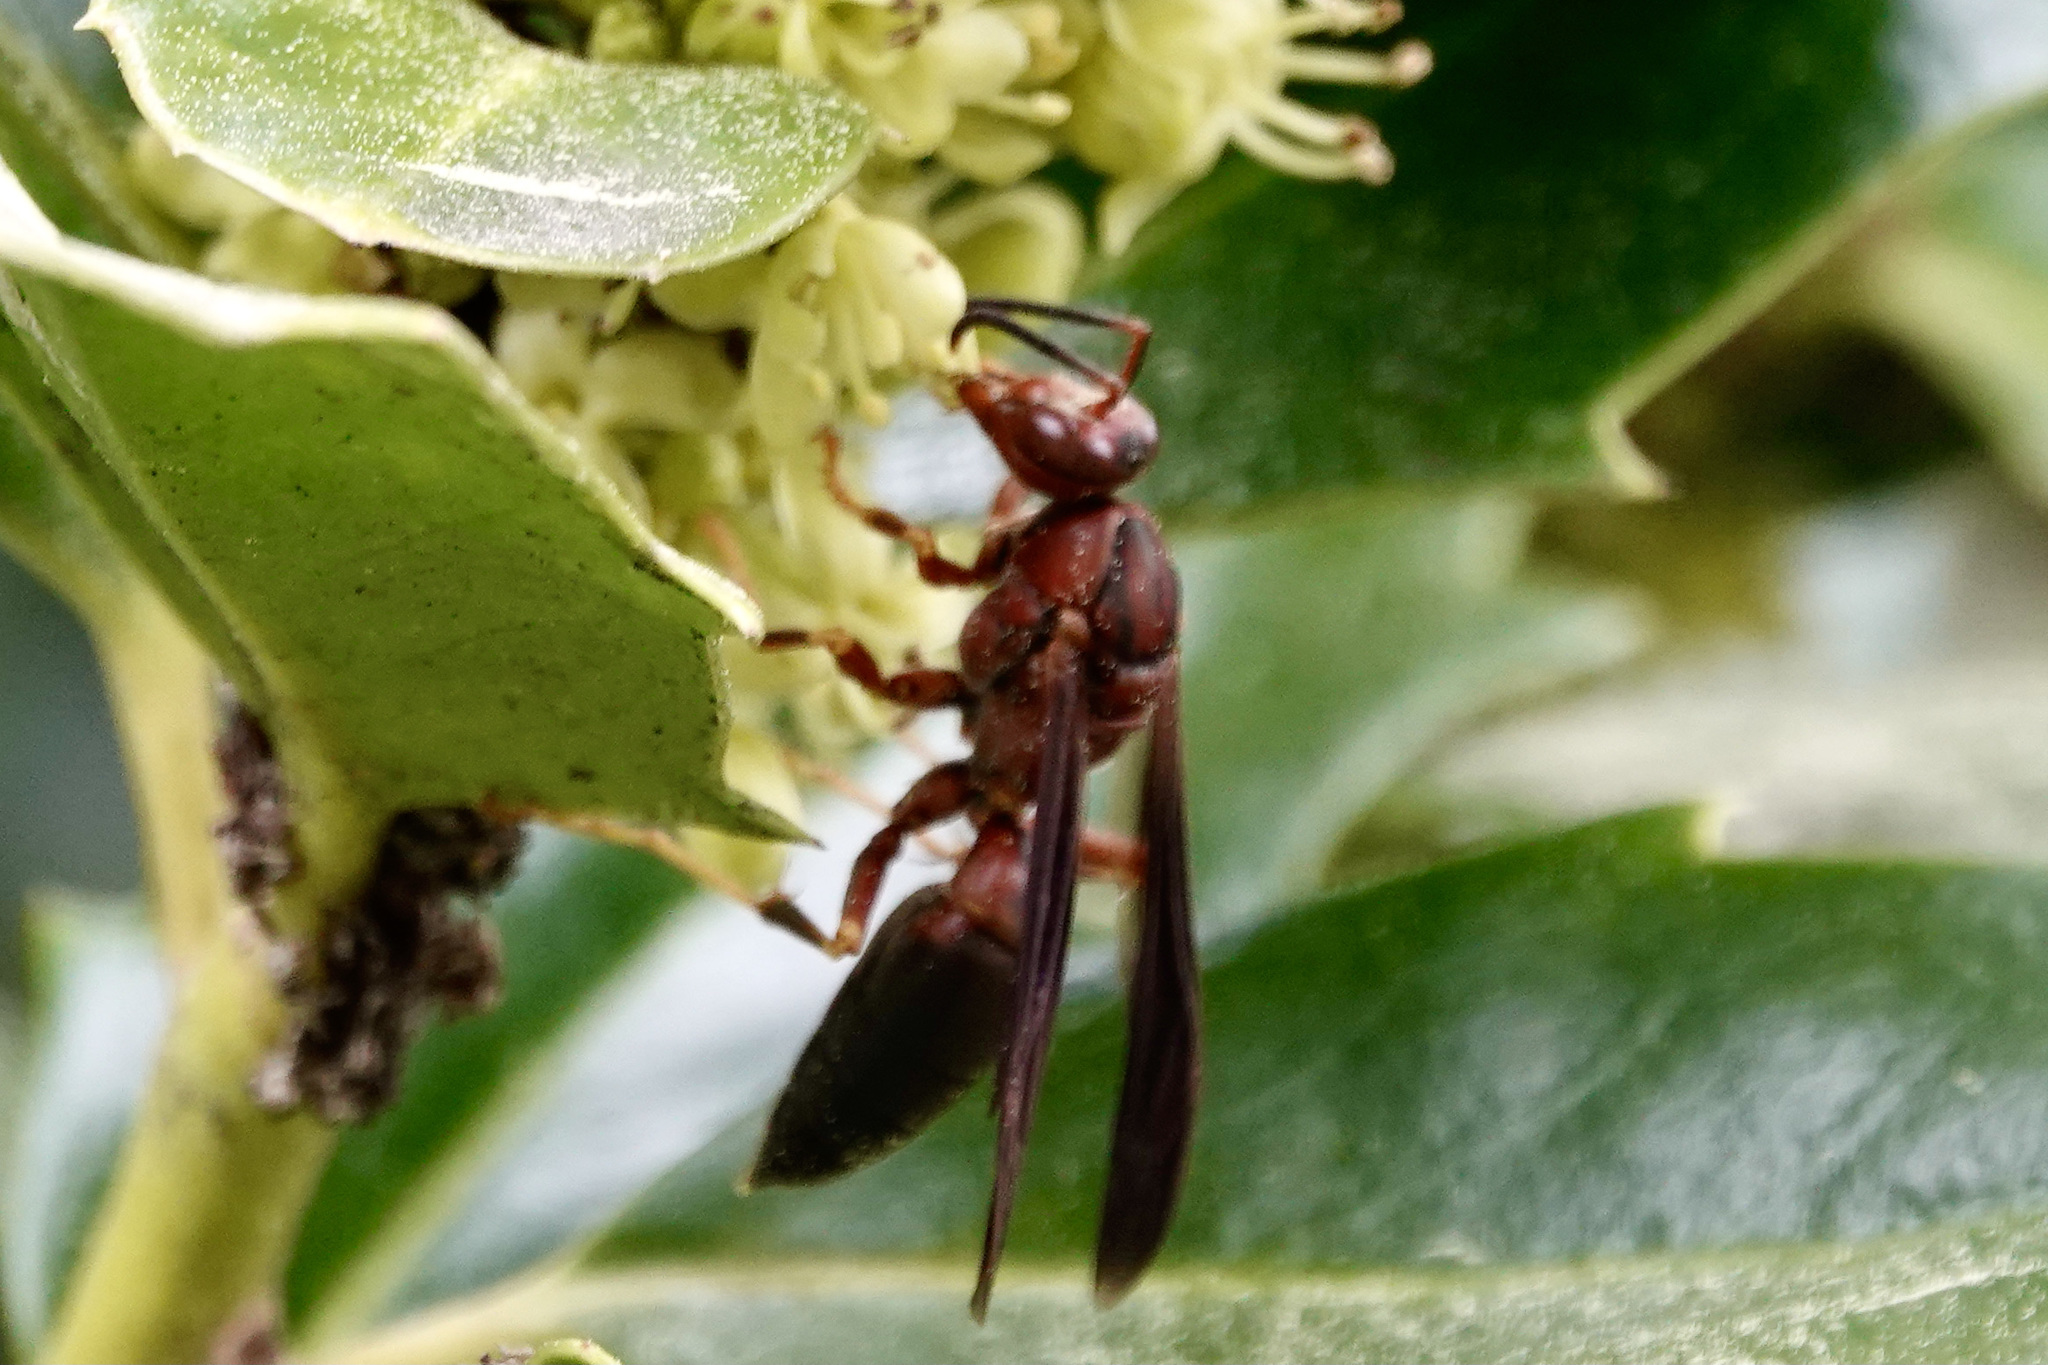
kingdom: Animalia
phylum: Arthropoda
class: Insecta
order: Hymenoptera
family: Eumenidae
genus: Polistes
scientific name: Polistes metricus
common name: Metric paper wasp
